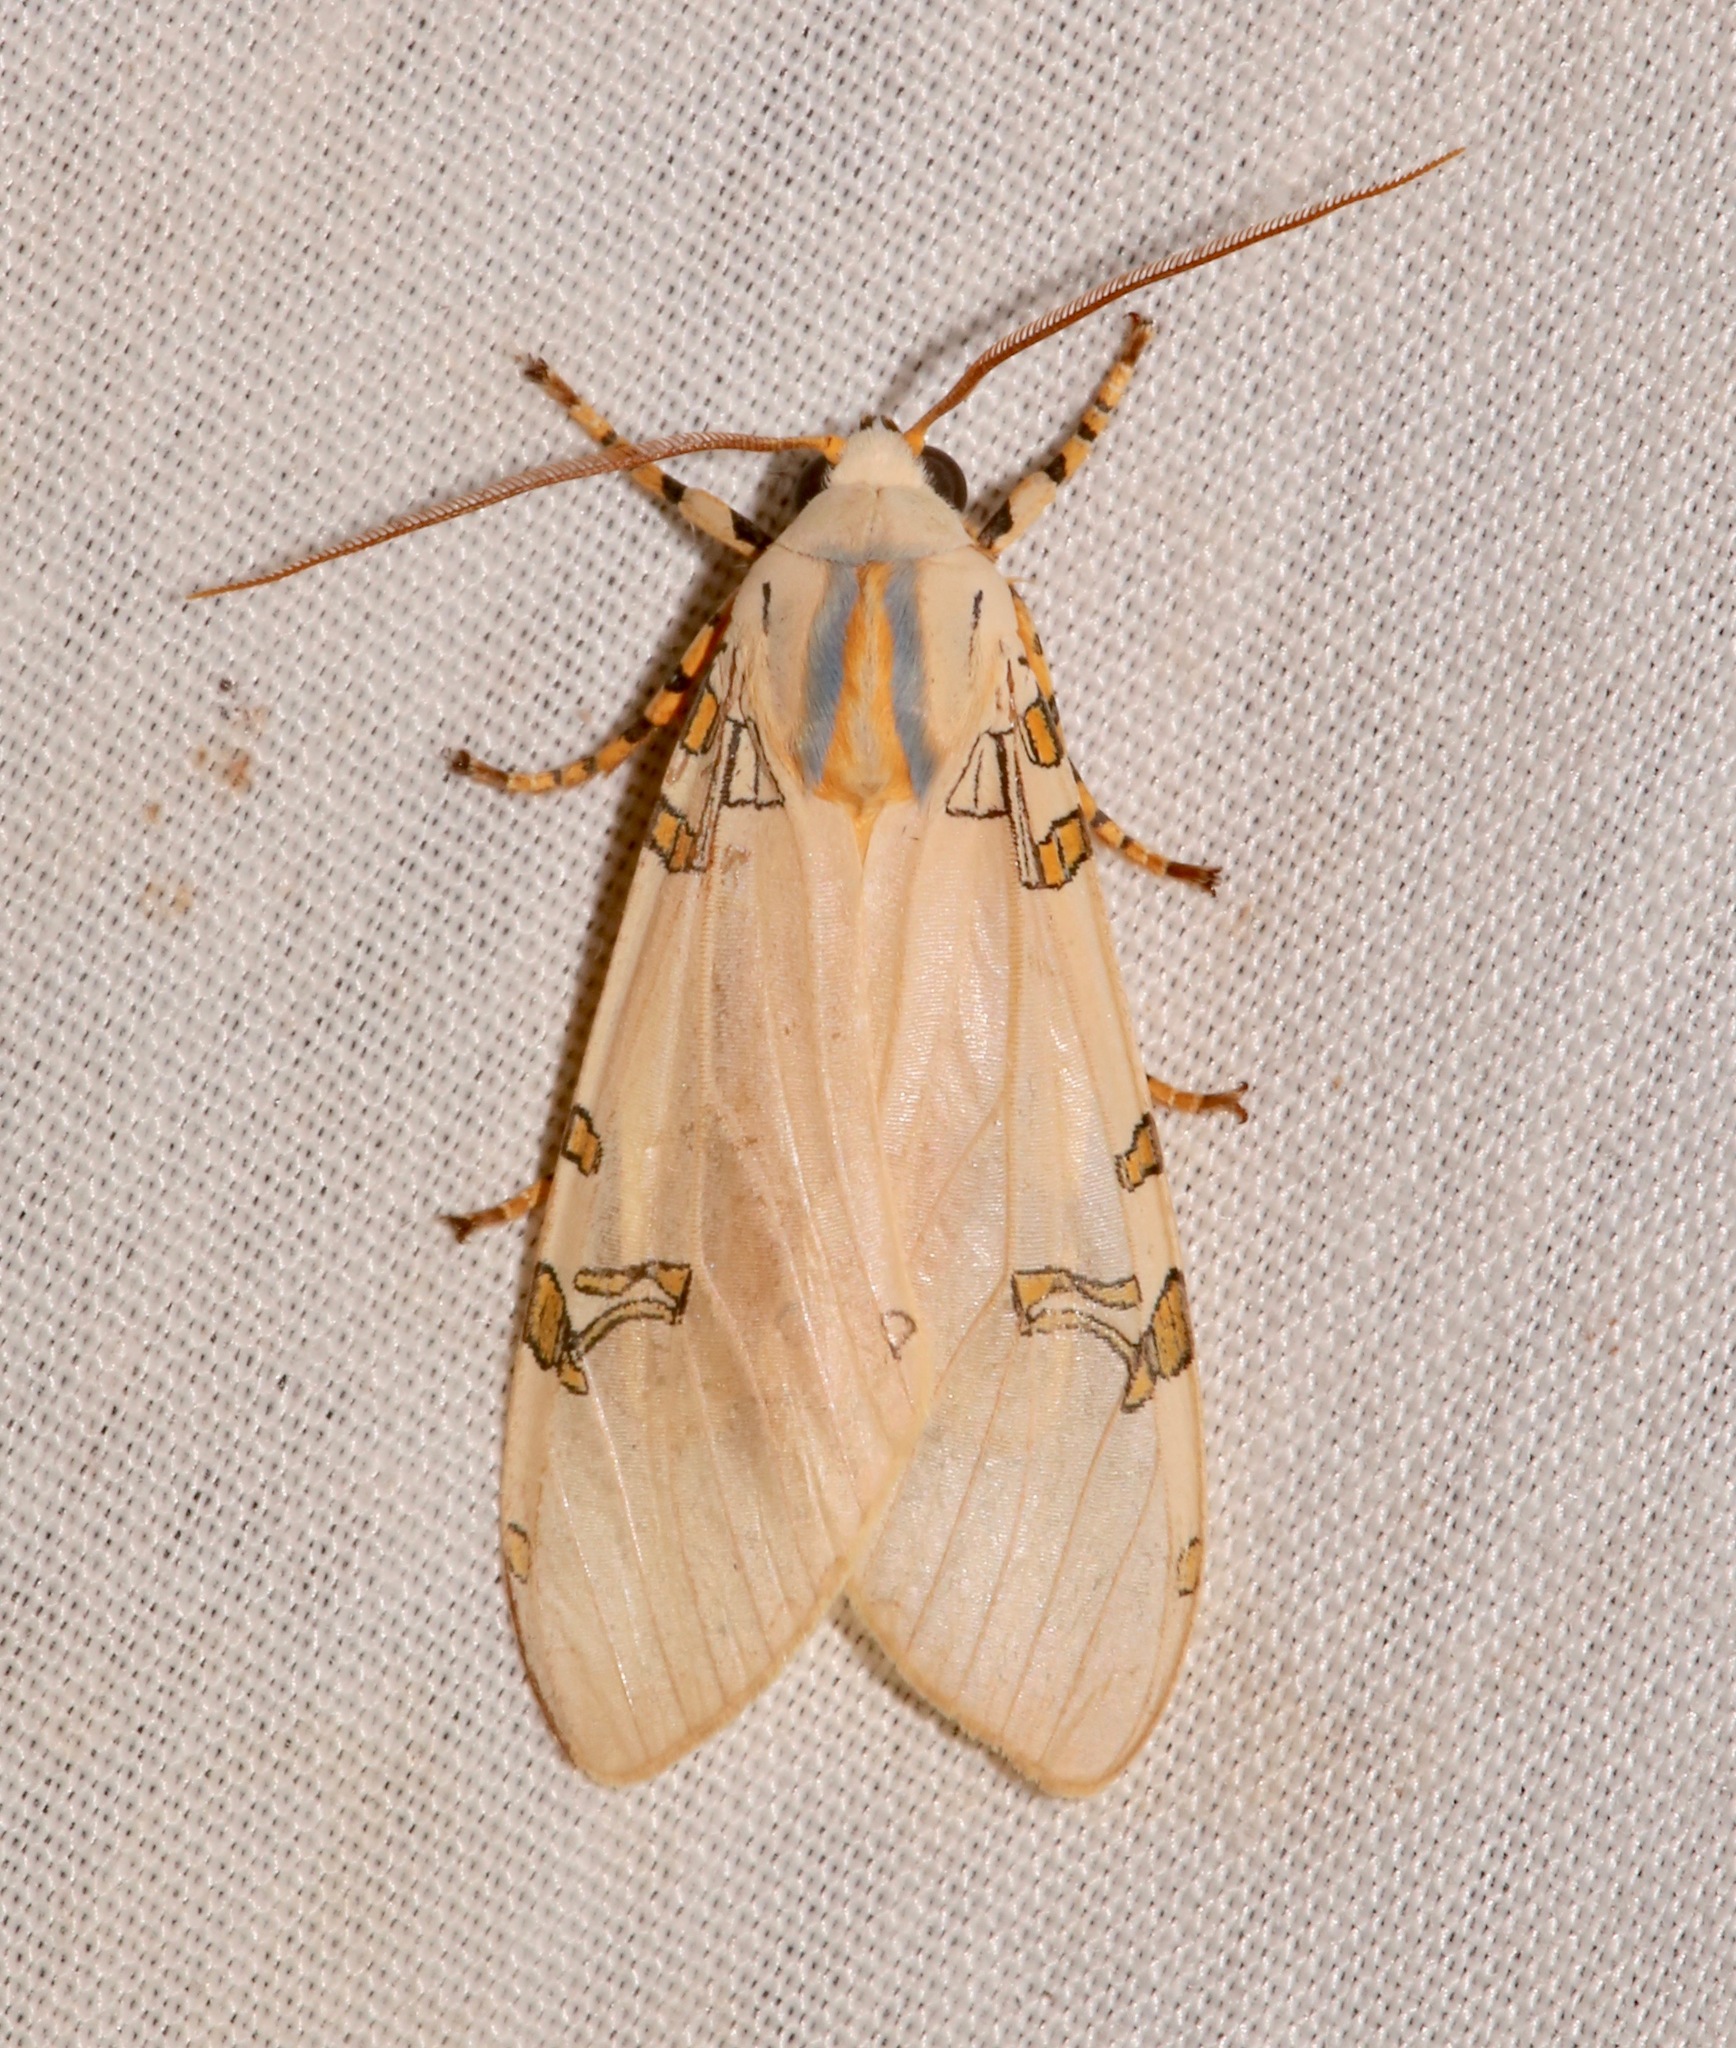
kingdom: Animalia
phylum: Arthropoda
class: Insecta
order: Lepidoptera
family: Erebidae
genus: Halysidota
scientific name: Halysidota davisii
